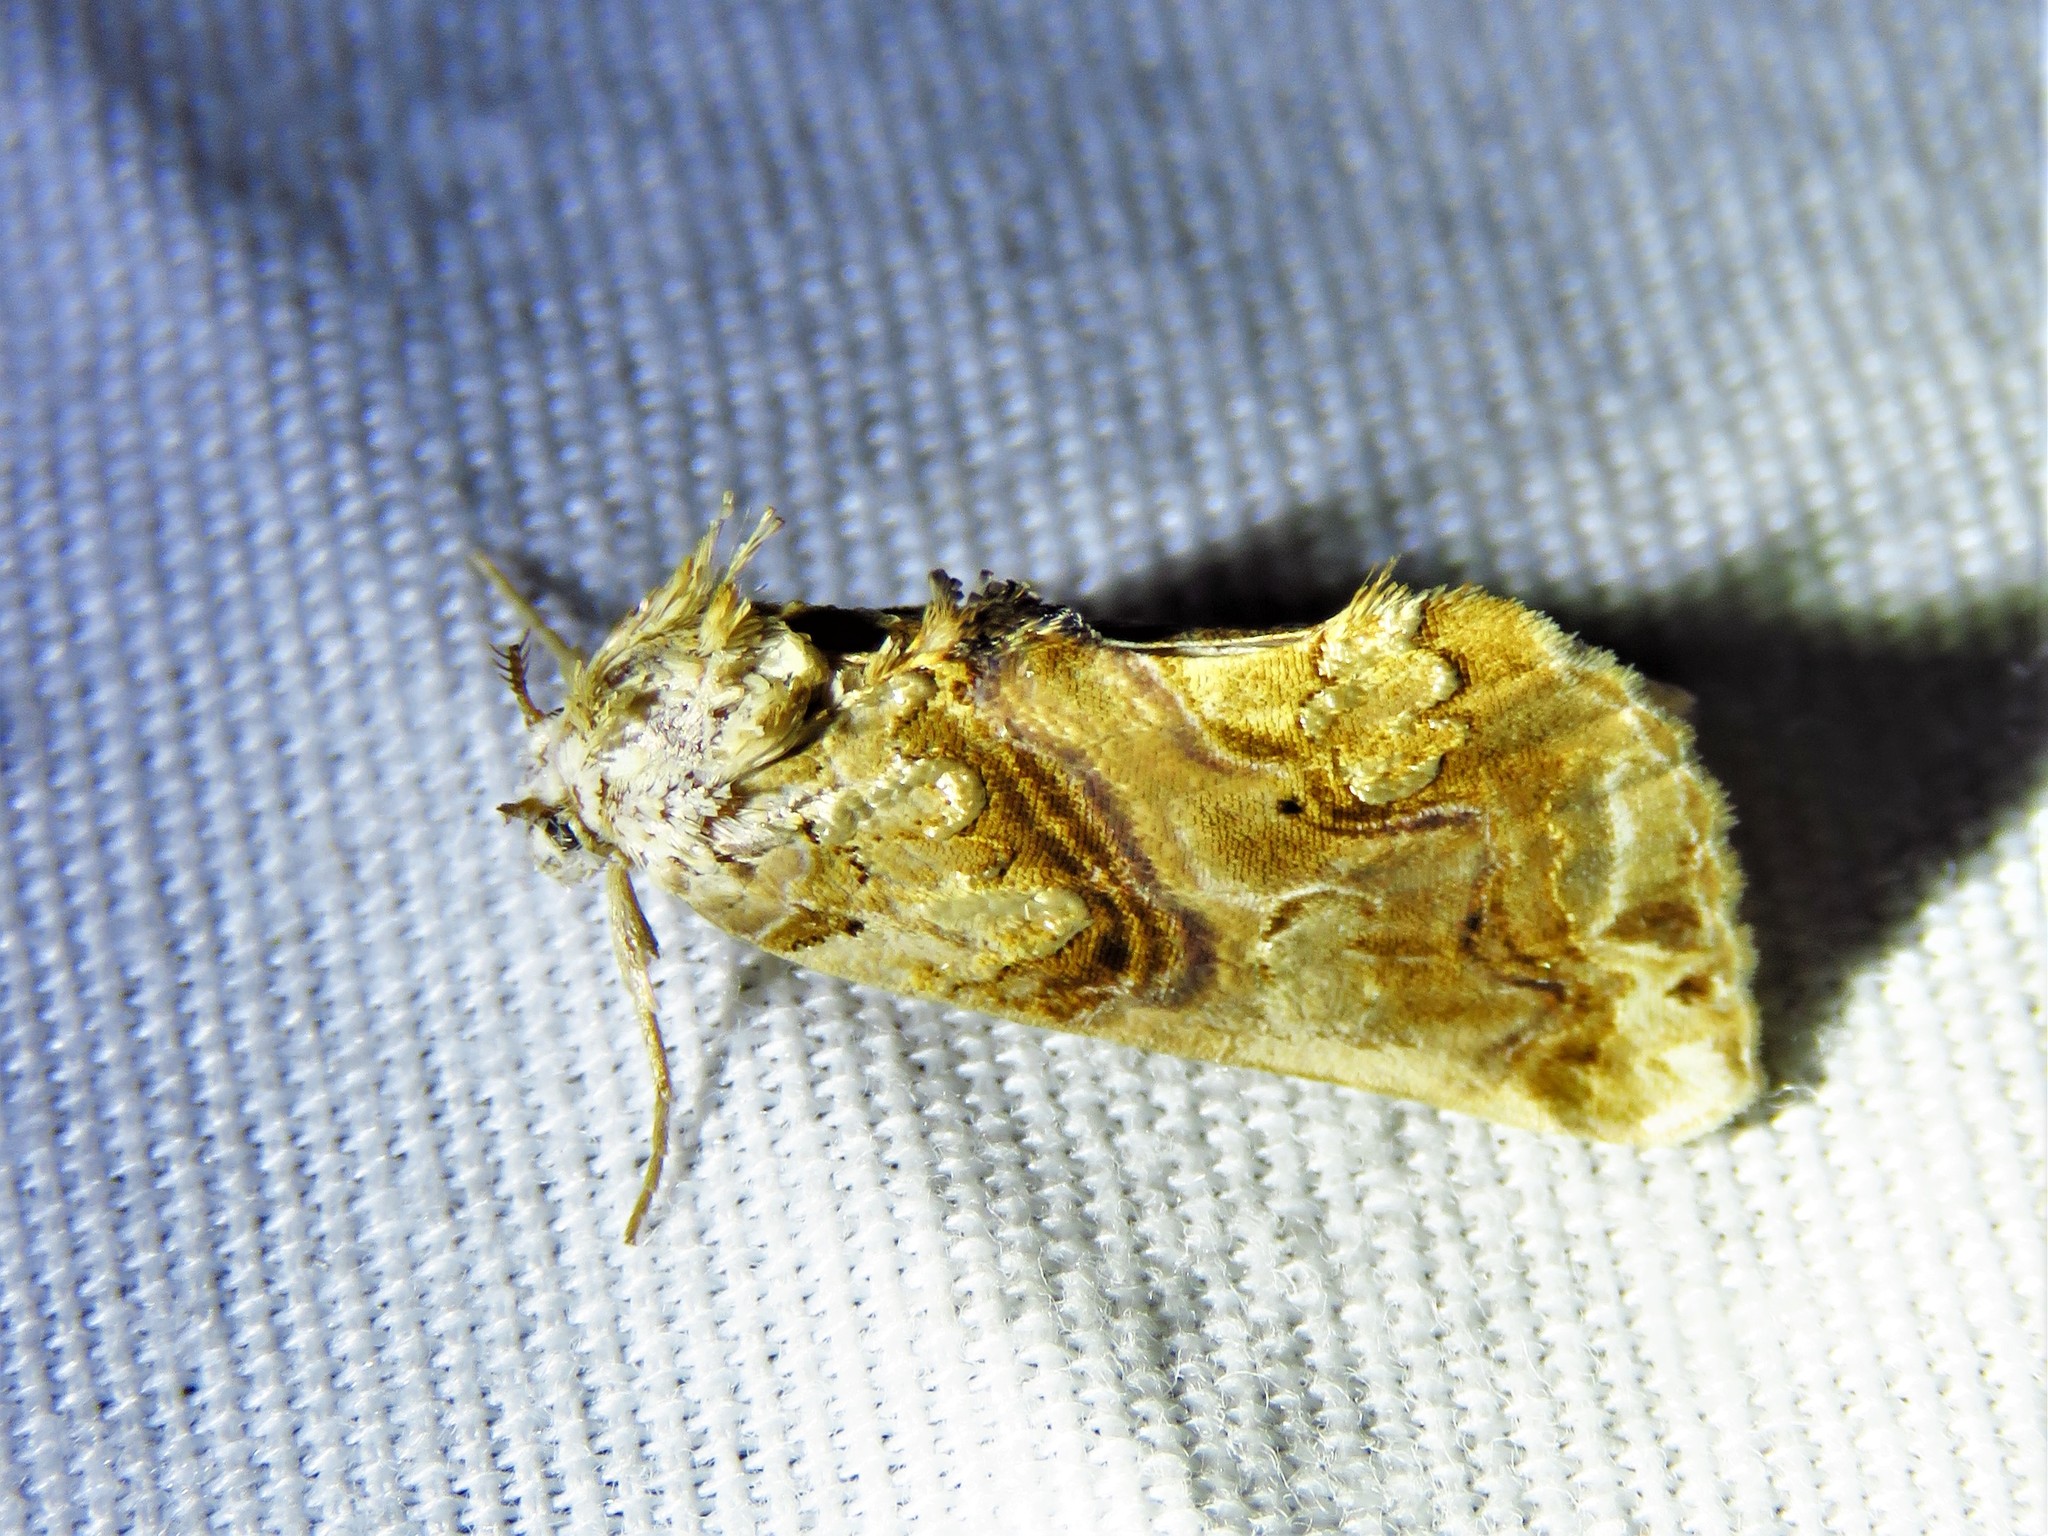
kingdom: Animalia
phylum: Arthropoda
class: Insecta
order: Lepidoptera
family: Erebidae
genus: Plusiodonta
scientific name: Plusiodonta compressipalpis
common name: Moonseed moth
